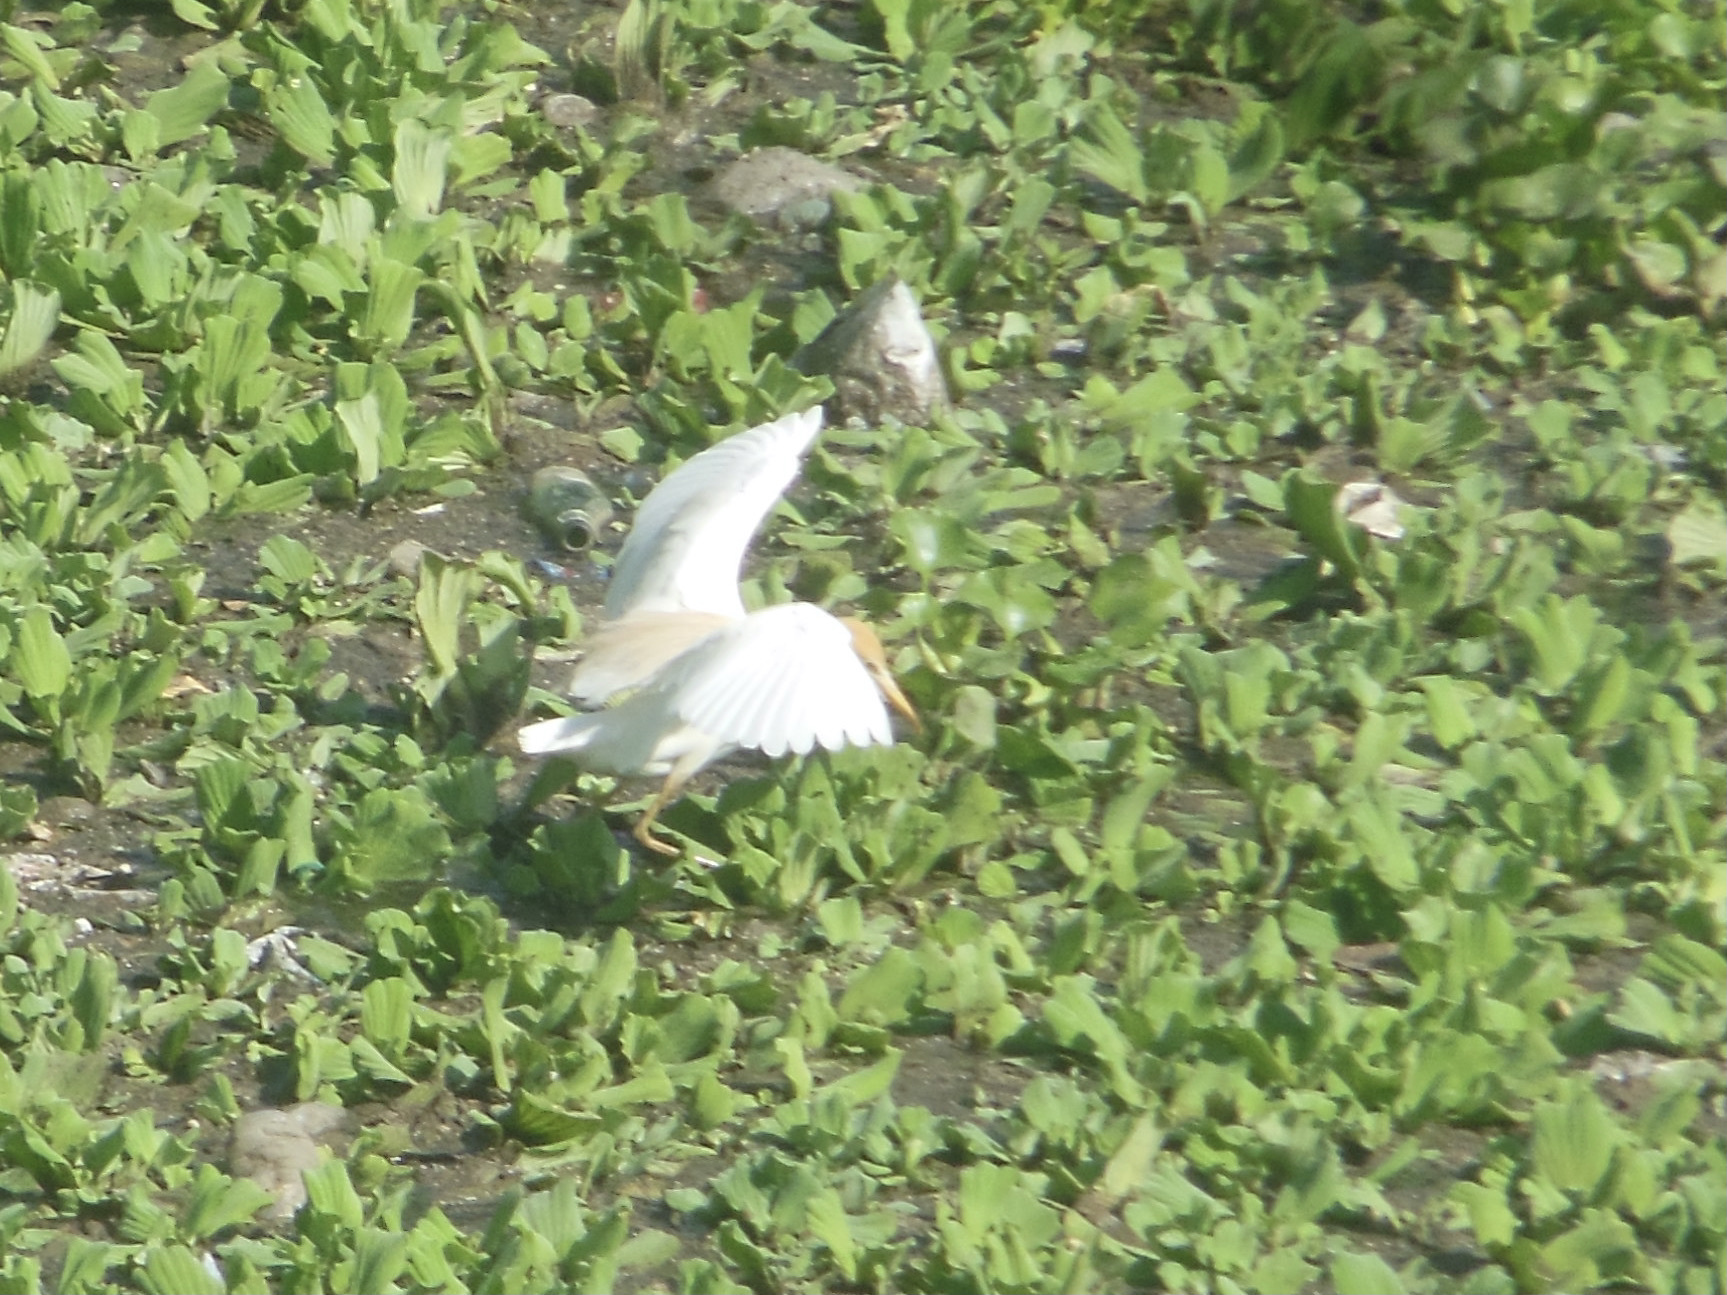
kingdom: Animalia
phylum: Chordata
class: Aves
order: Pelecaniformes
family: Ardeidae
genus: Bubulcus
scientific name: Bubulcus coromandus
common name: Eastern cattle egret
